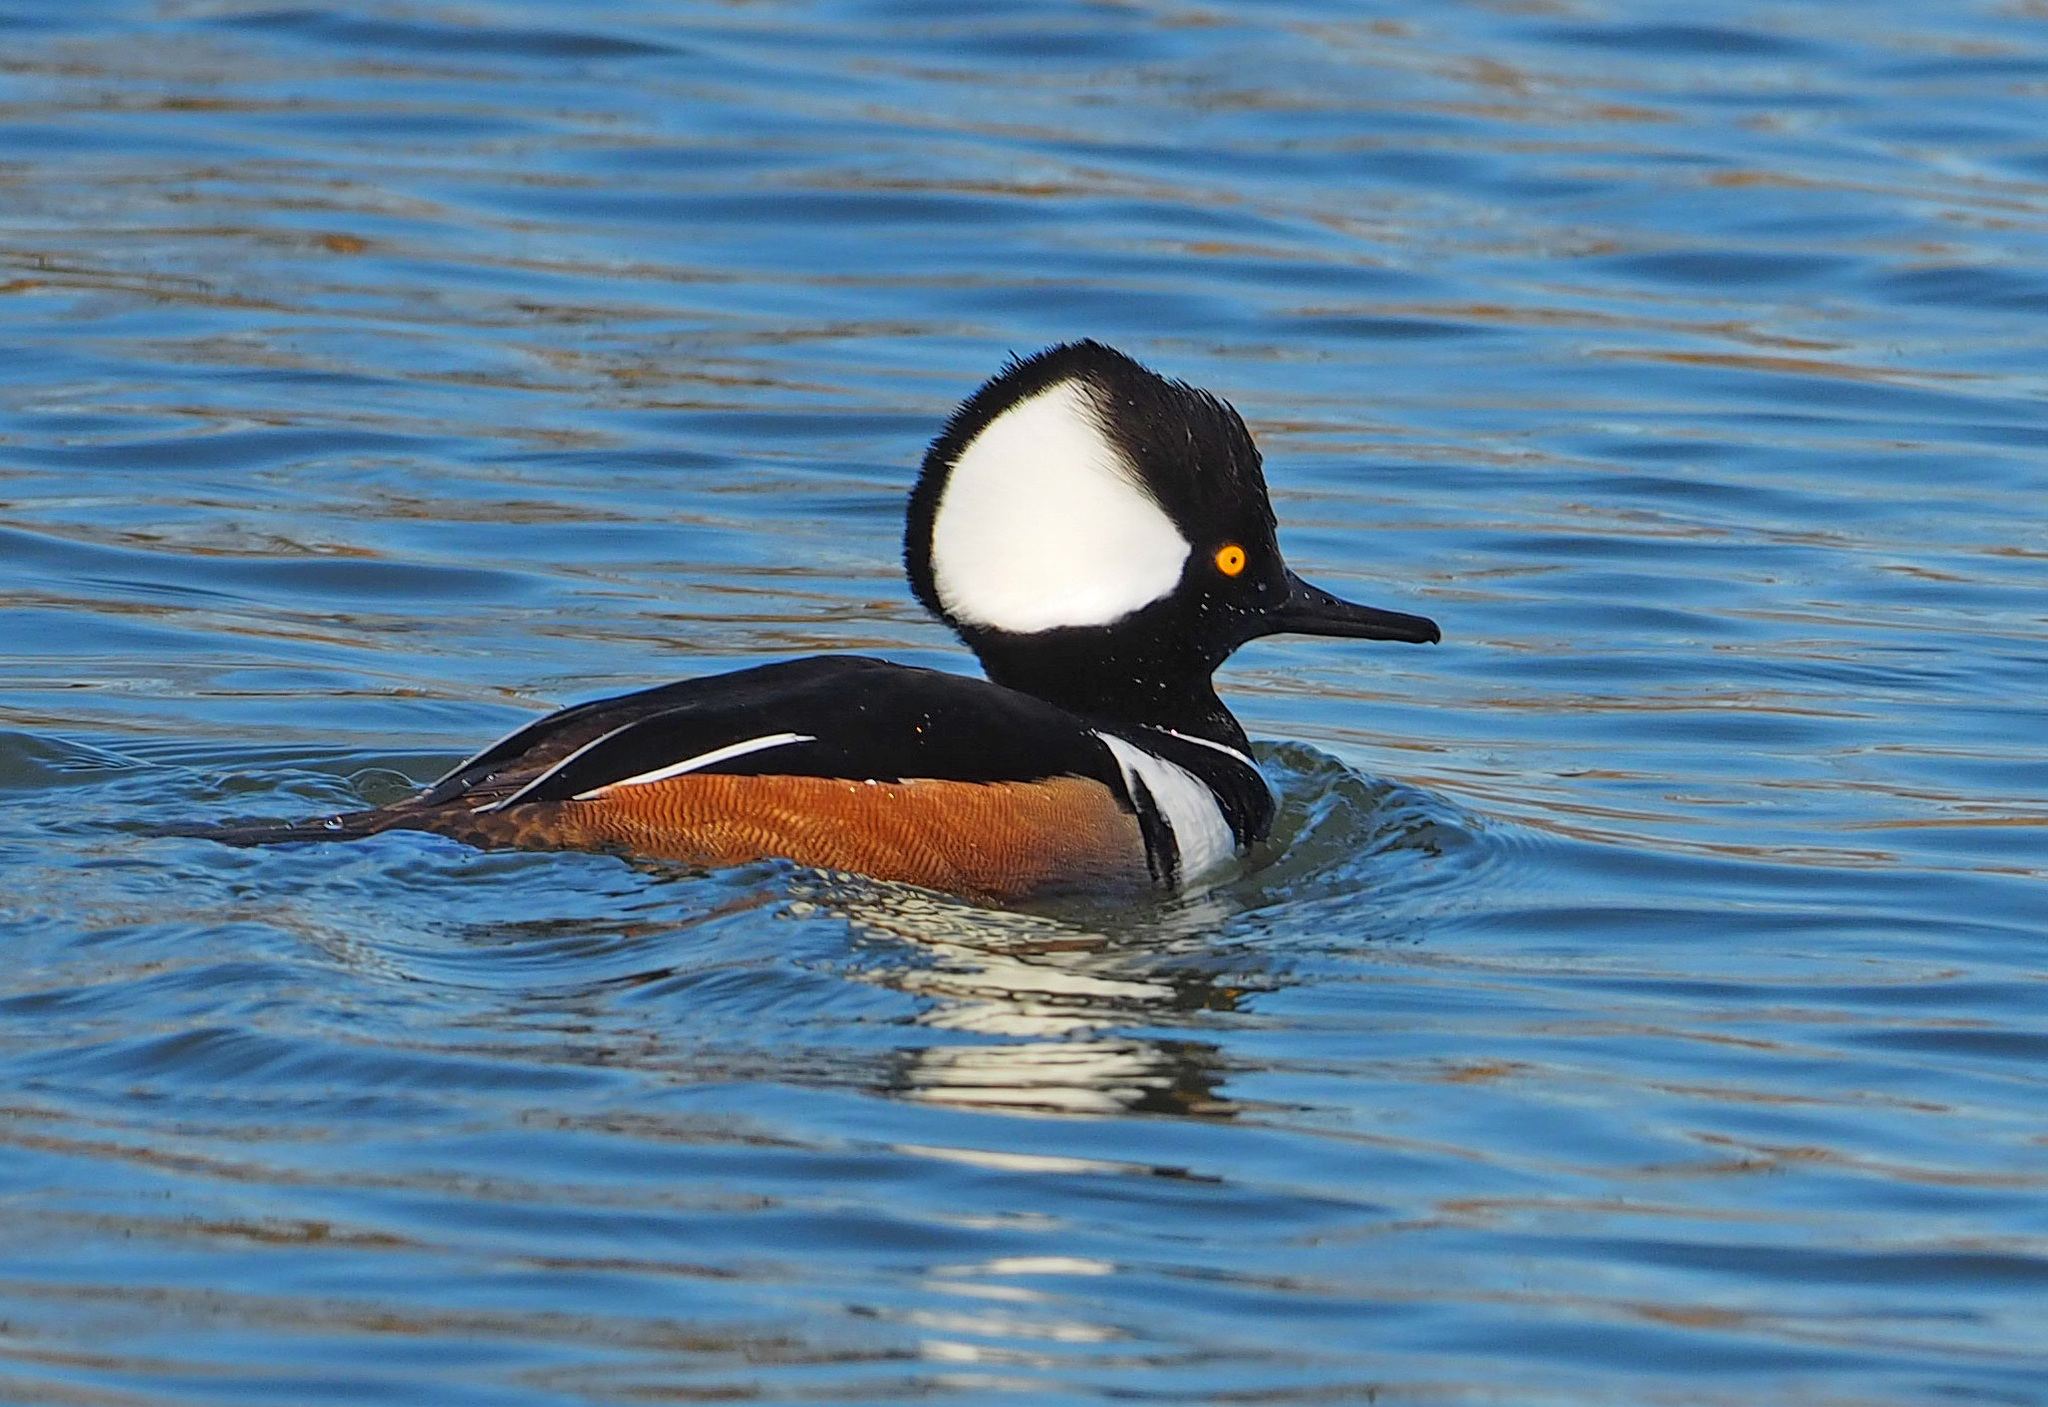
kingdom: Animalia
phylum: Chordata
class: Aves
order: Anseriformes
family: Anatidae
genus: Lophodytes
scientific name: Lophodytes cucullatus
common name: Hooded merganser
